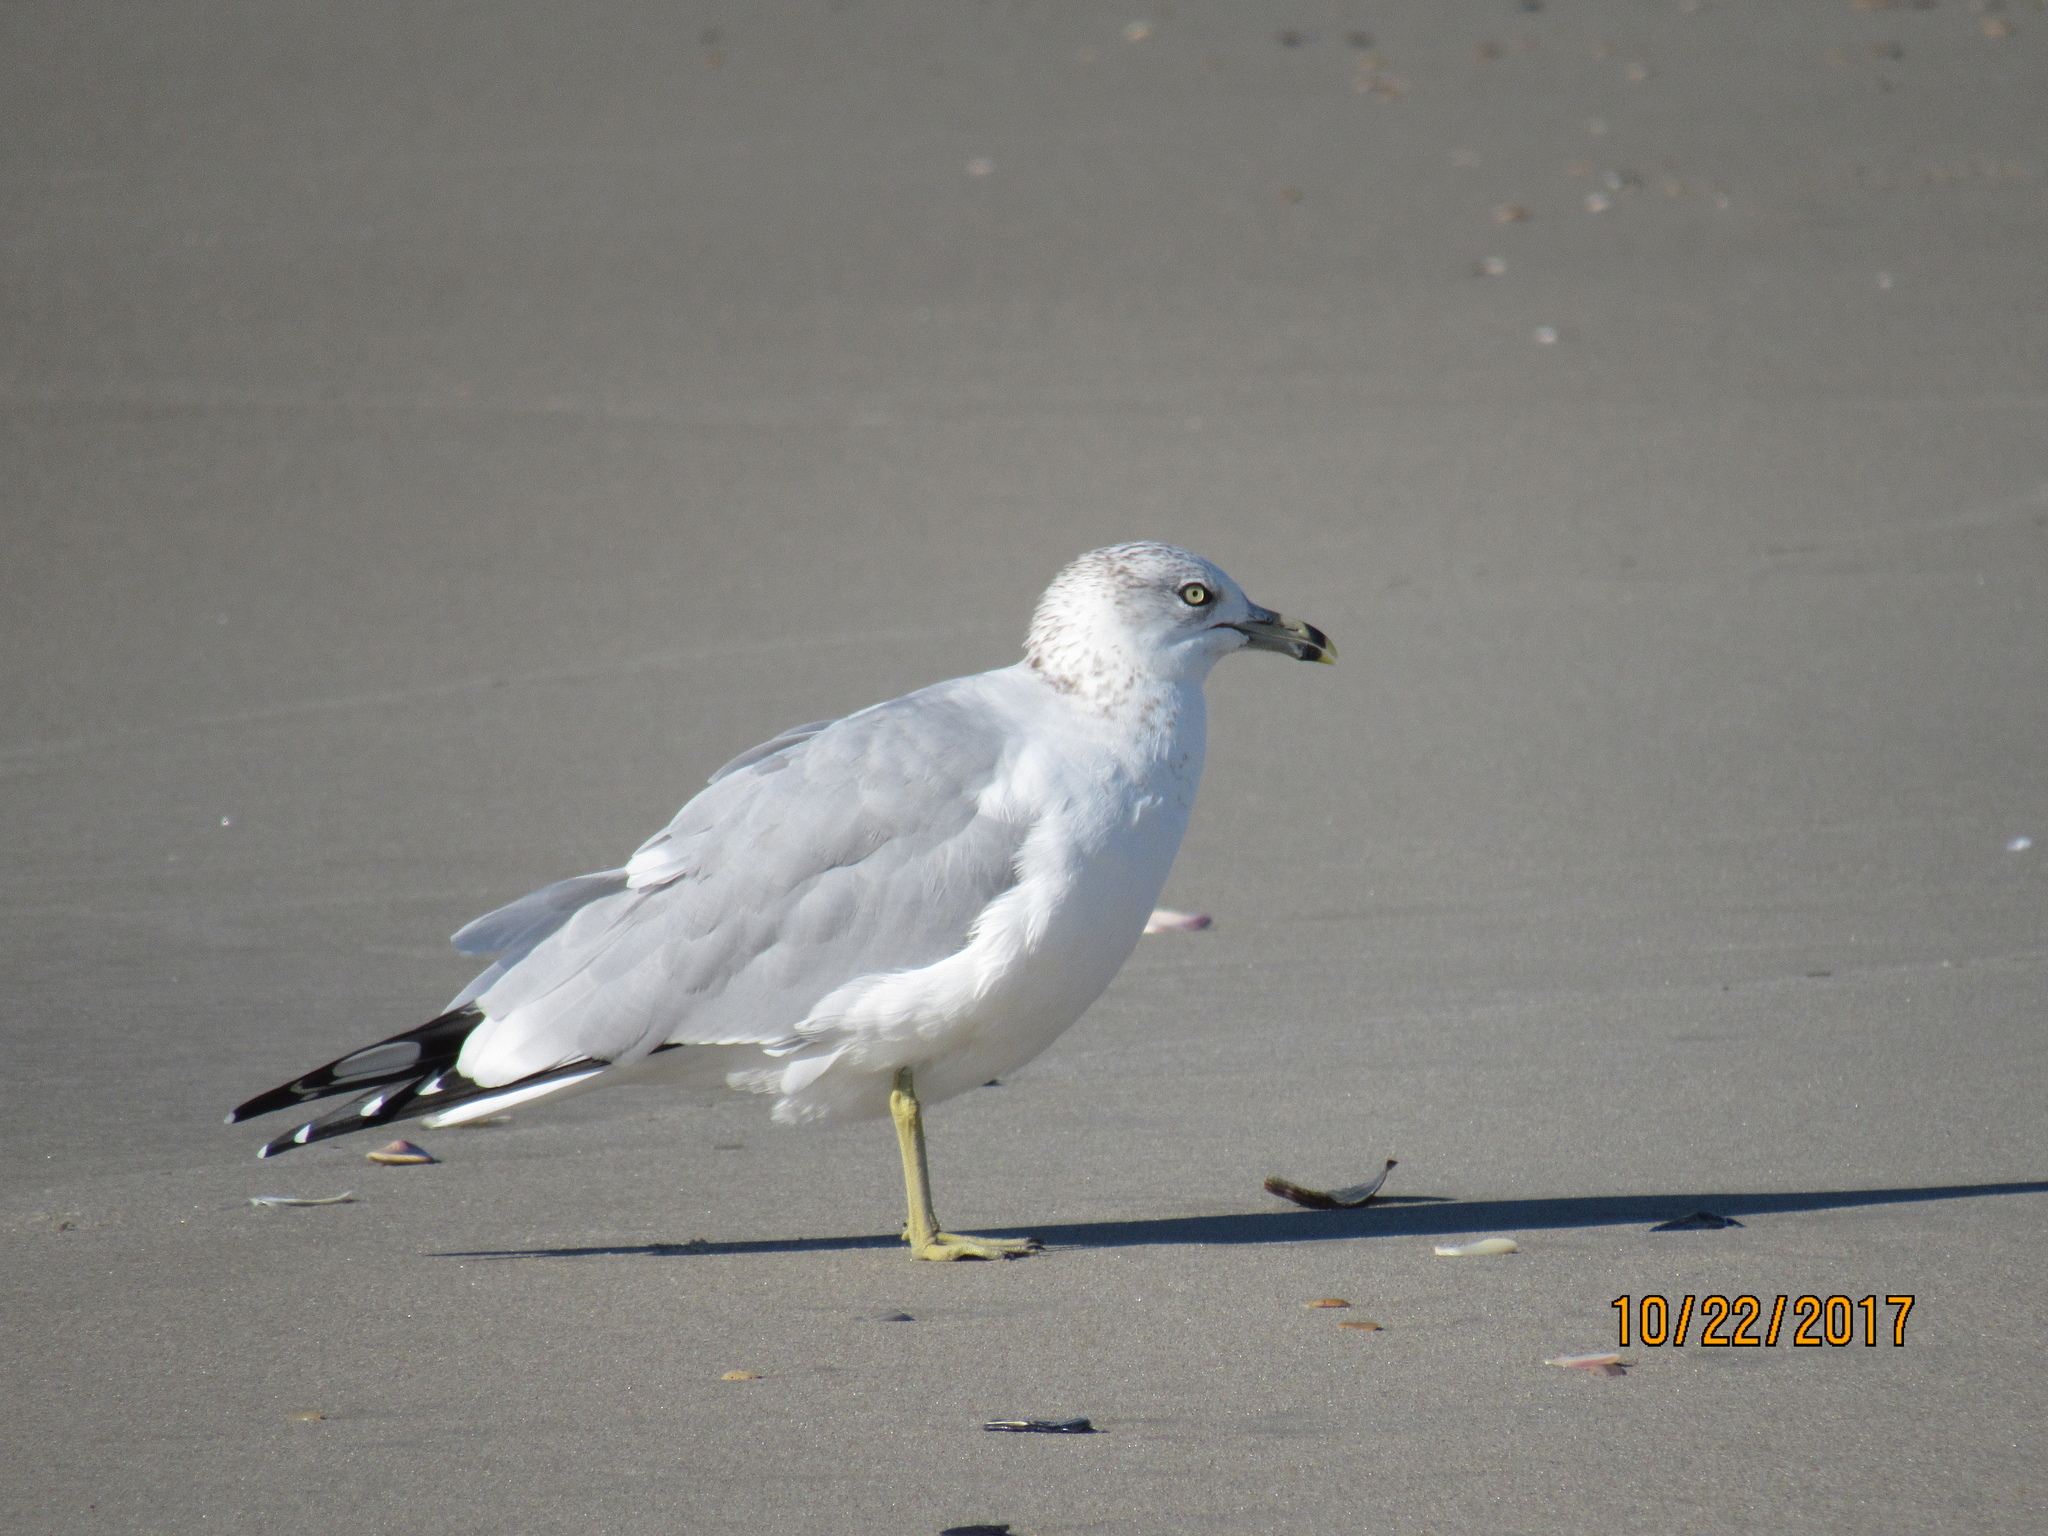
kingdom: Animalia
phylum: Chordata
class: Aves
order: Charadriiformes
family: Laridae
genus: Larus
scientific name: Larus delawarensis
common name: Ring-billed gull
